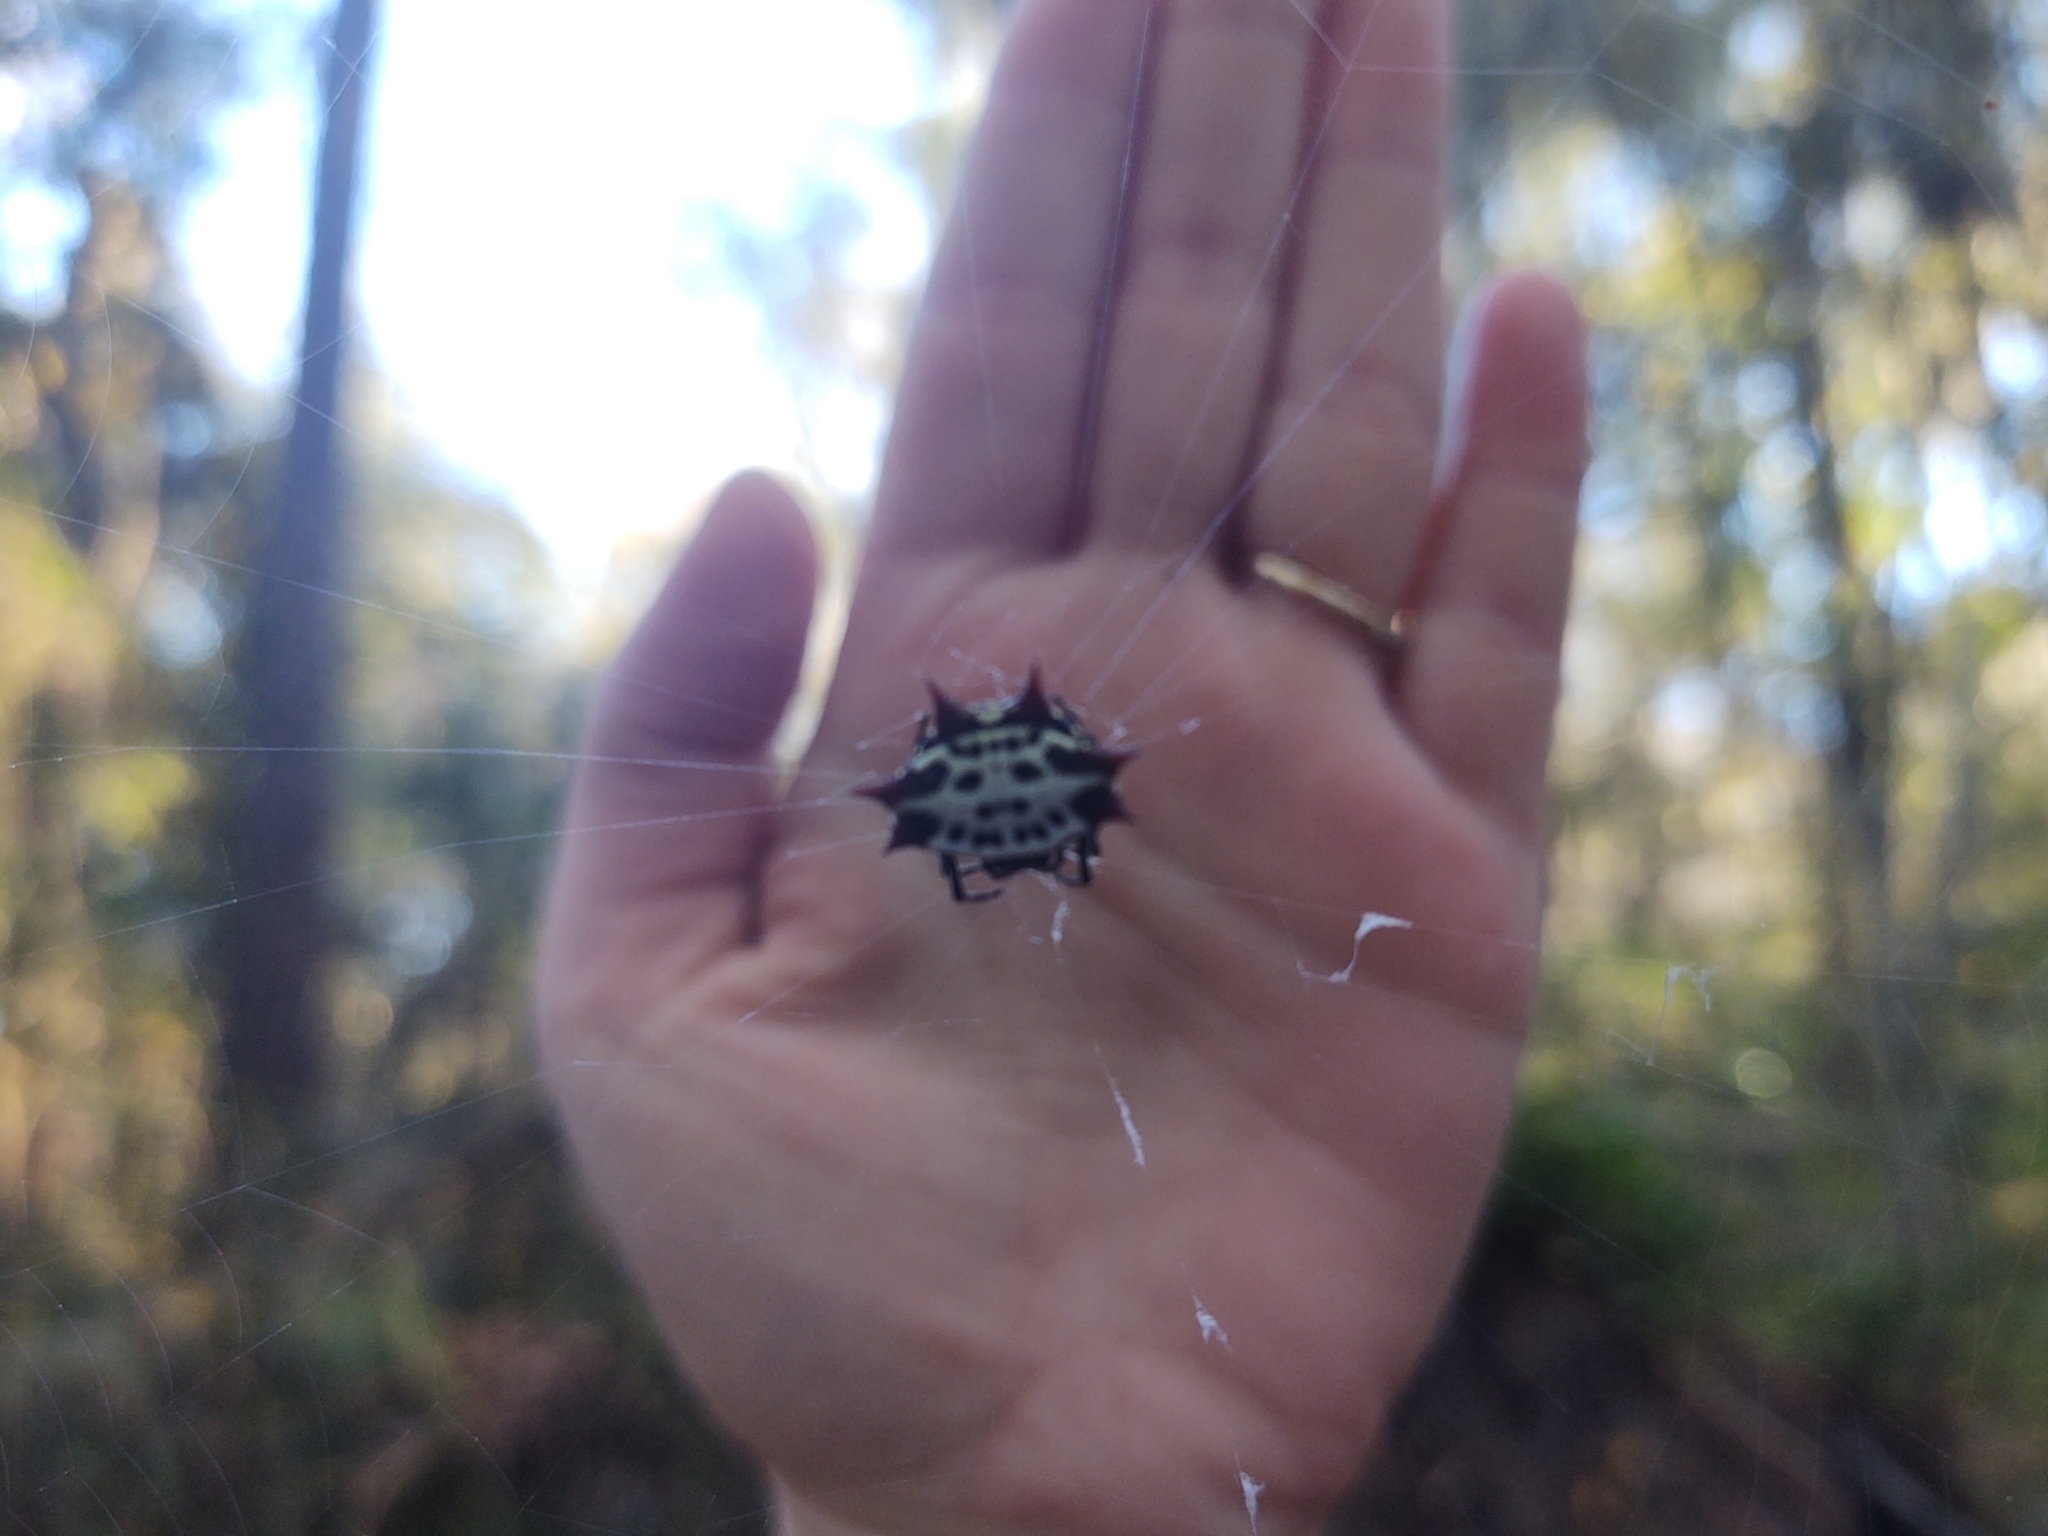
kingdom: Animalia
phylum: Arthropoda
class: Arachnida
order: Araneae
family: Araneidae
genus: Gasteracantha
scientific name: Gasteracantha cancriformis
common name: Orb weavers
